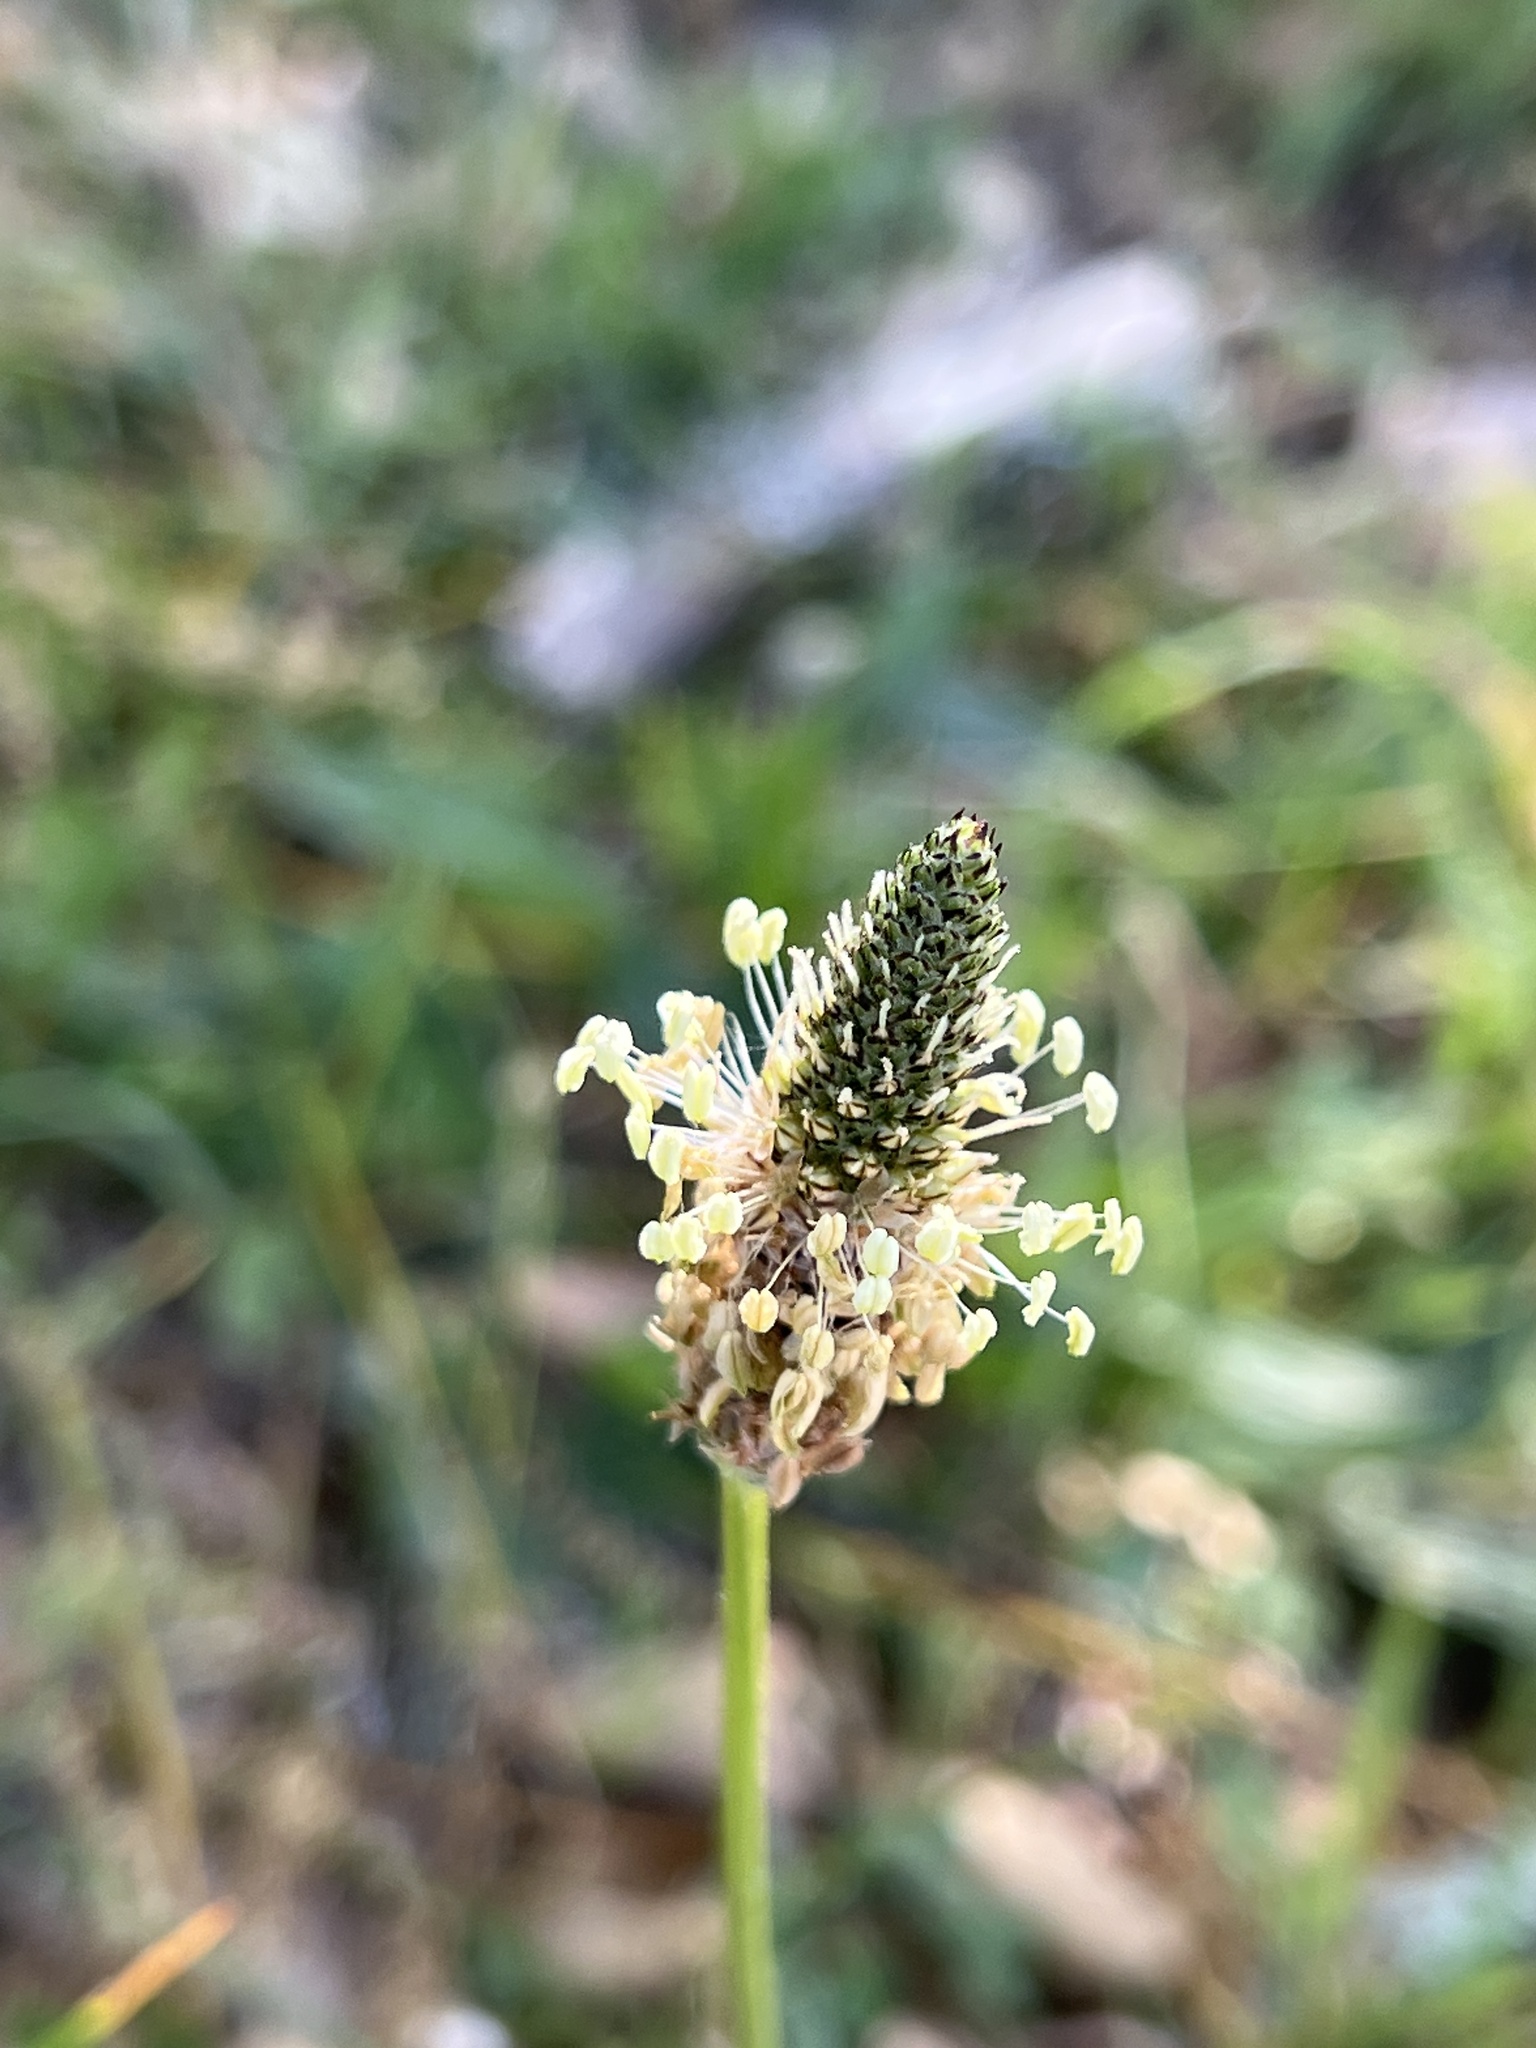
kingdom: Plantae
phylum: Tracheophyta
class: Magnoliopsida
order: Lamiales
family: Plantaginaceae
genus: Plantago
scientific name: Plantago lanceolata
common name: Ribwort plantain
